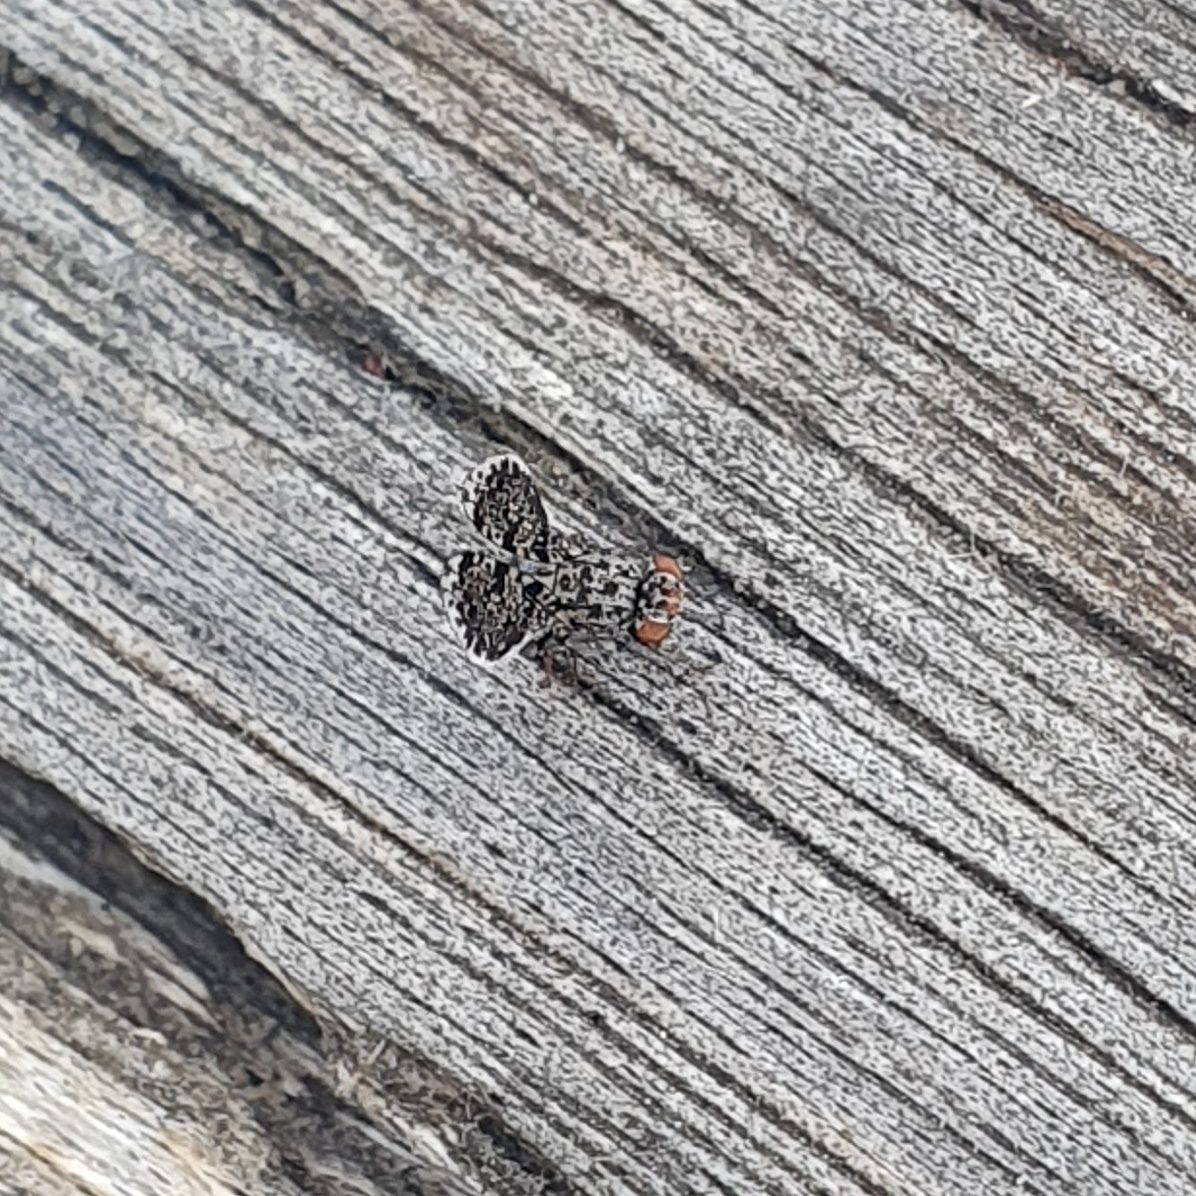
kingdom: Animalia
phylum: Arthropoda
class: Insecta
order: Diptera
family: Ulidiidae
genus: Callopistromyia
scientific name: Callopistromyia annulipes
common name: Peacock fly
